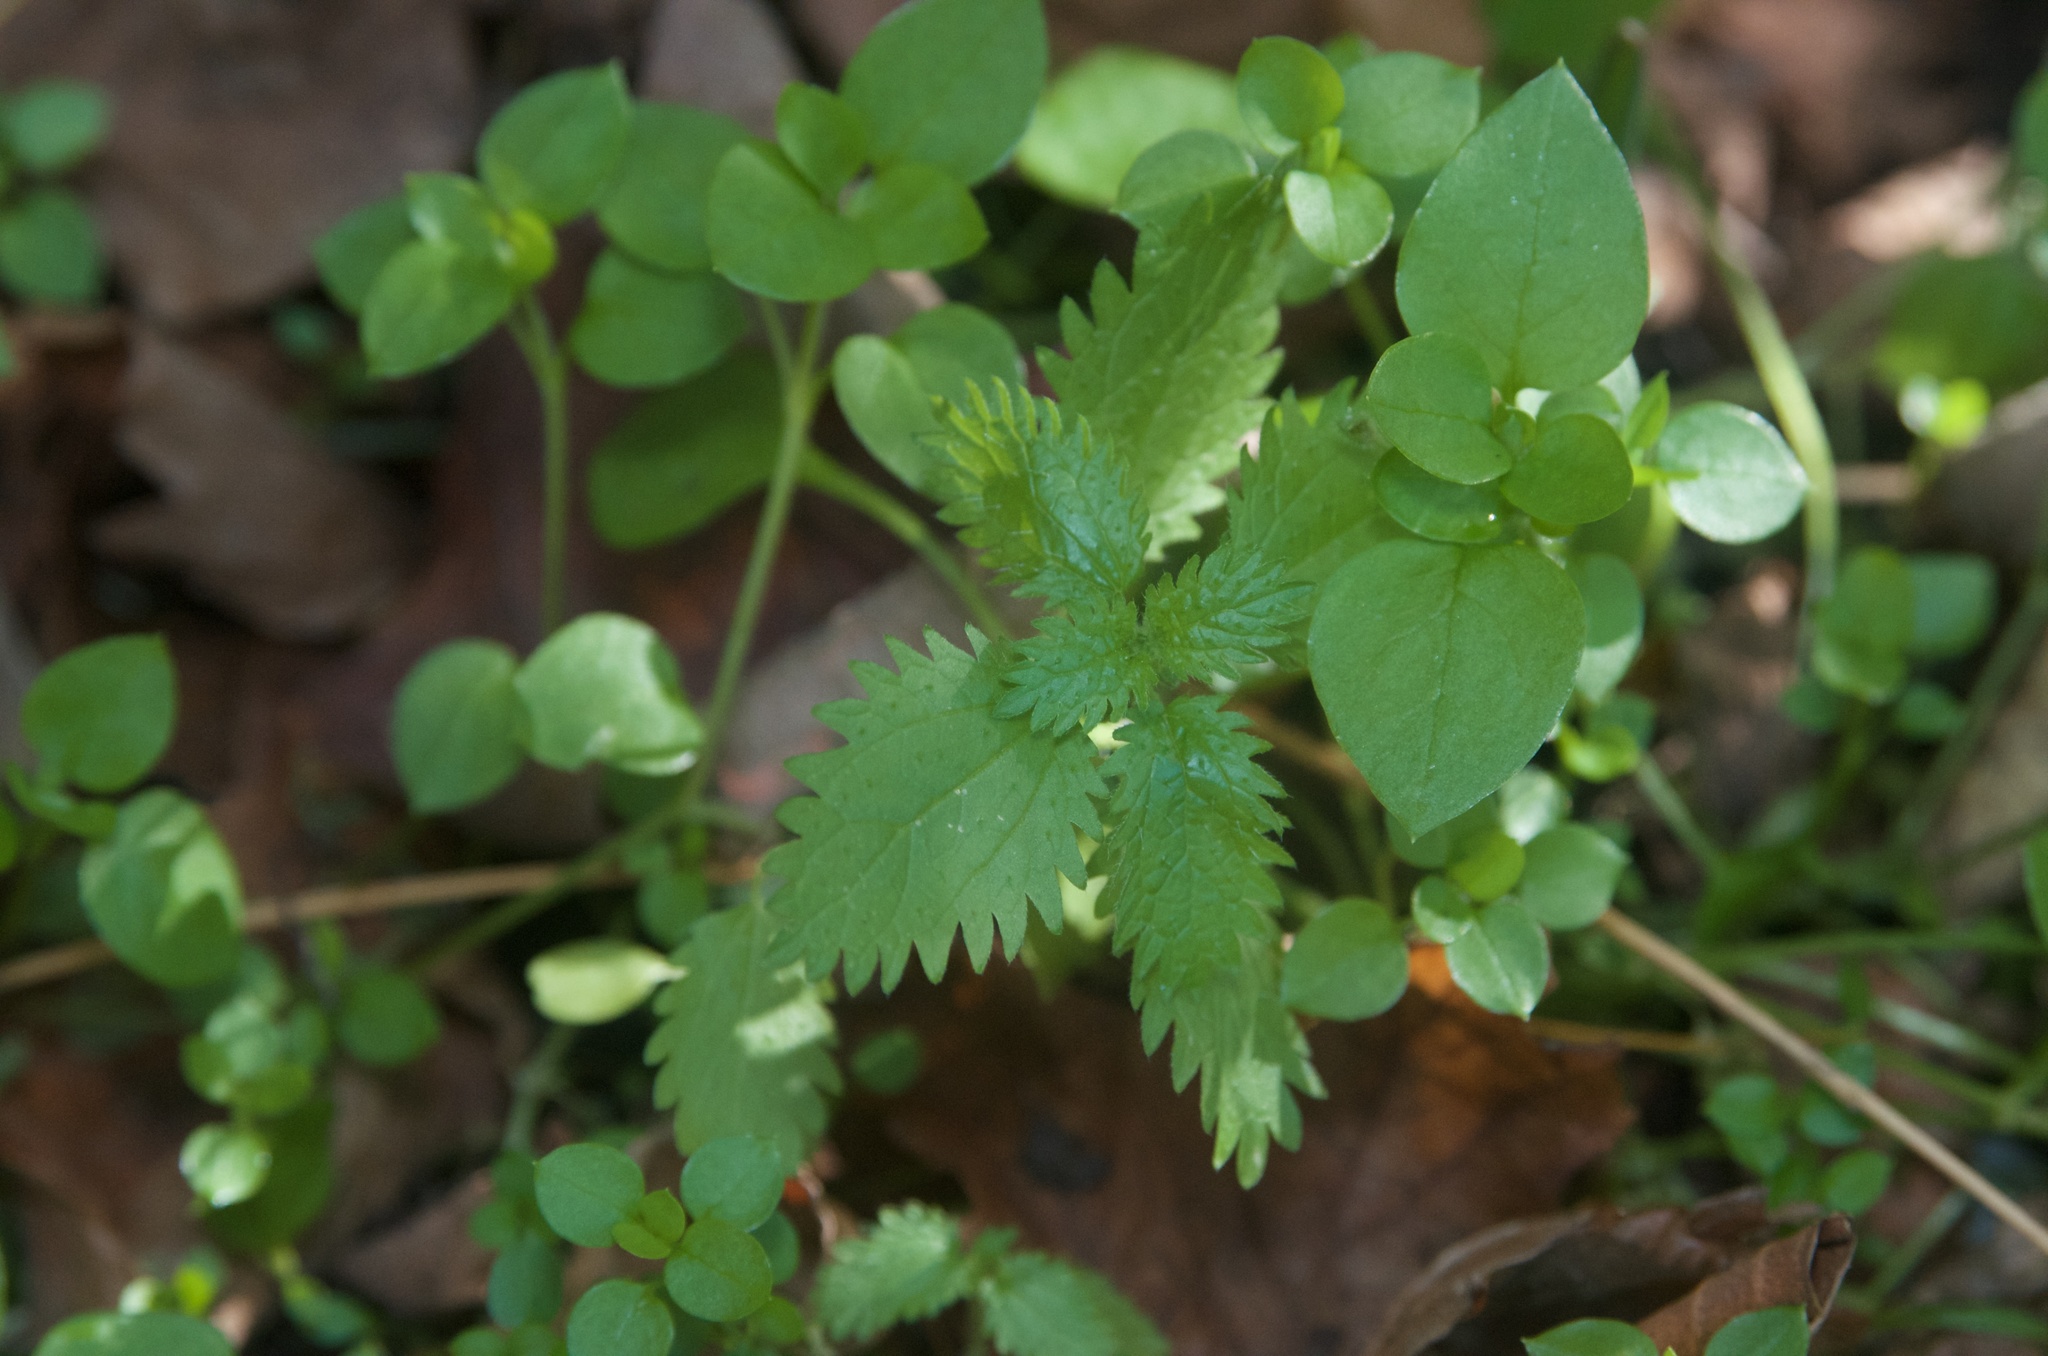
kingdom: Plantae
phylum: Tracheophyta
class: Magnoliopsida
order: Rosales
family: Urticaceae
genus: Urtica
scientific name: Urtica urens
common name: Dwarf nettle
